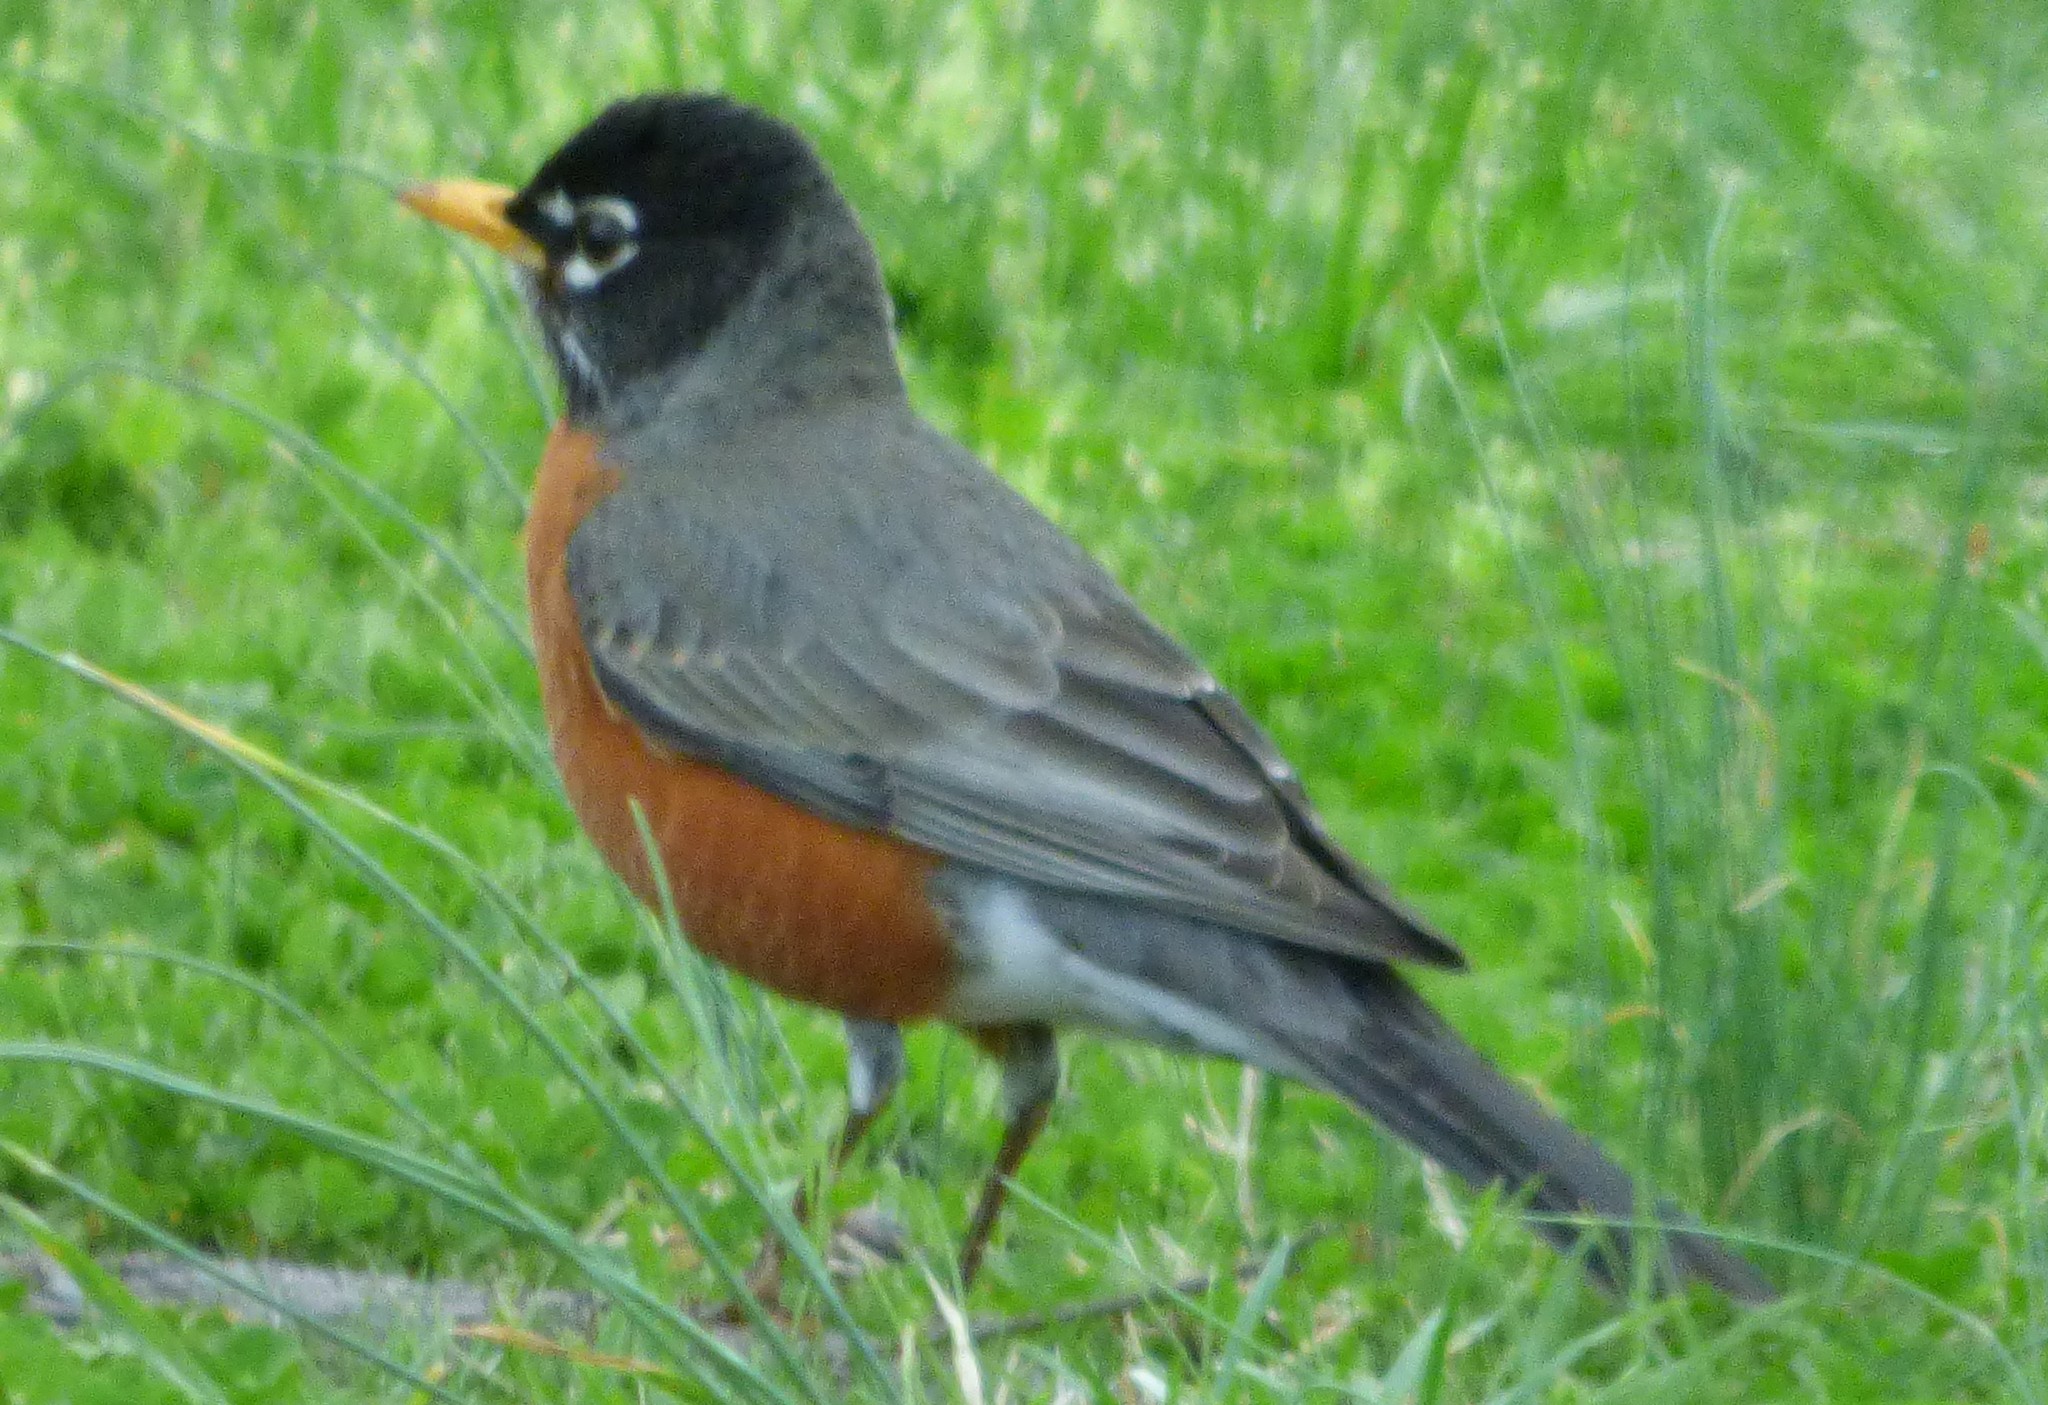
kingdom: Animalia
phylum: Chordata
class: Aves
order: Passeriformes
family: Turdidae
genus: Turdus
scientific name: Turdus migratorius
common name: American robin
